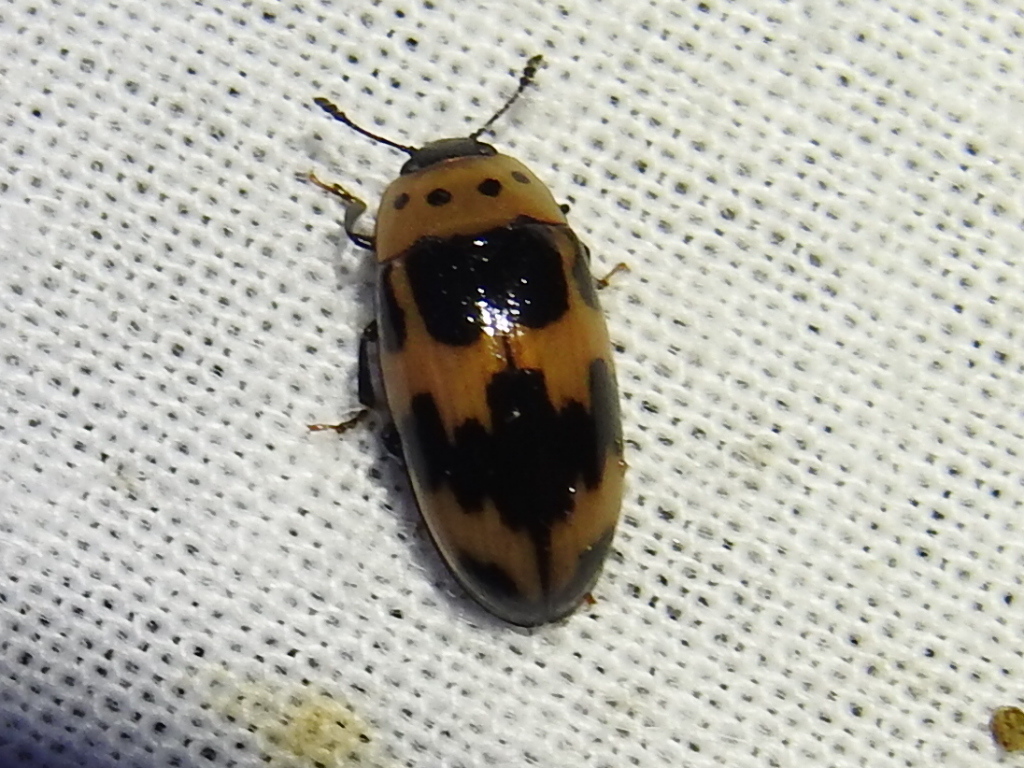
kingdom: Animalia
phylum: Arthropoda
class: Insecta
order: Coleoptera
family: Erotylidae
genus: Ischyrus
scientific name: Ischyrus quadripunctatus
